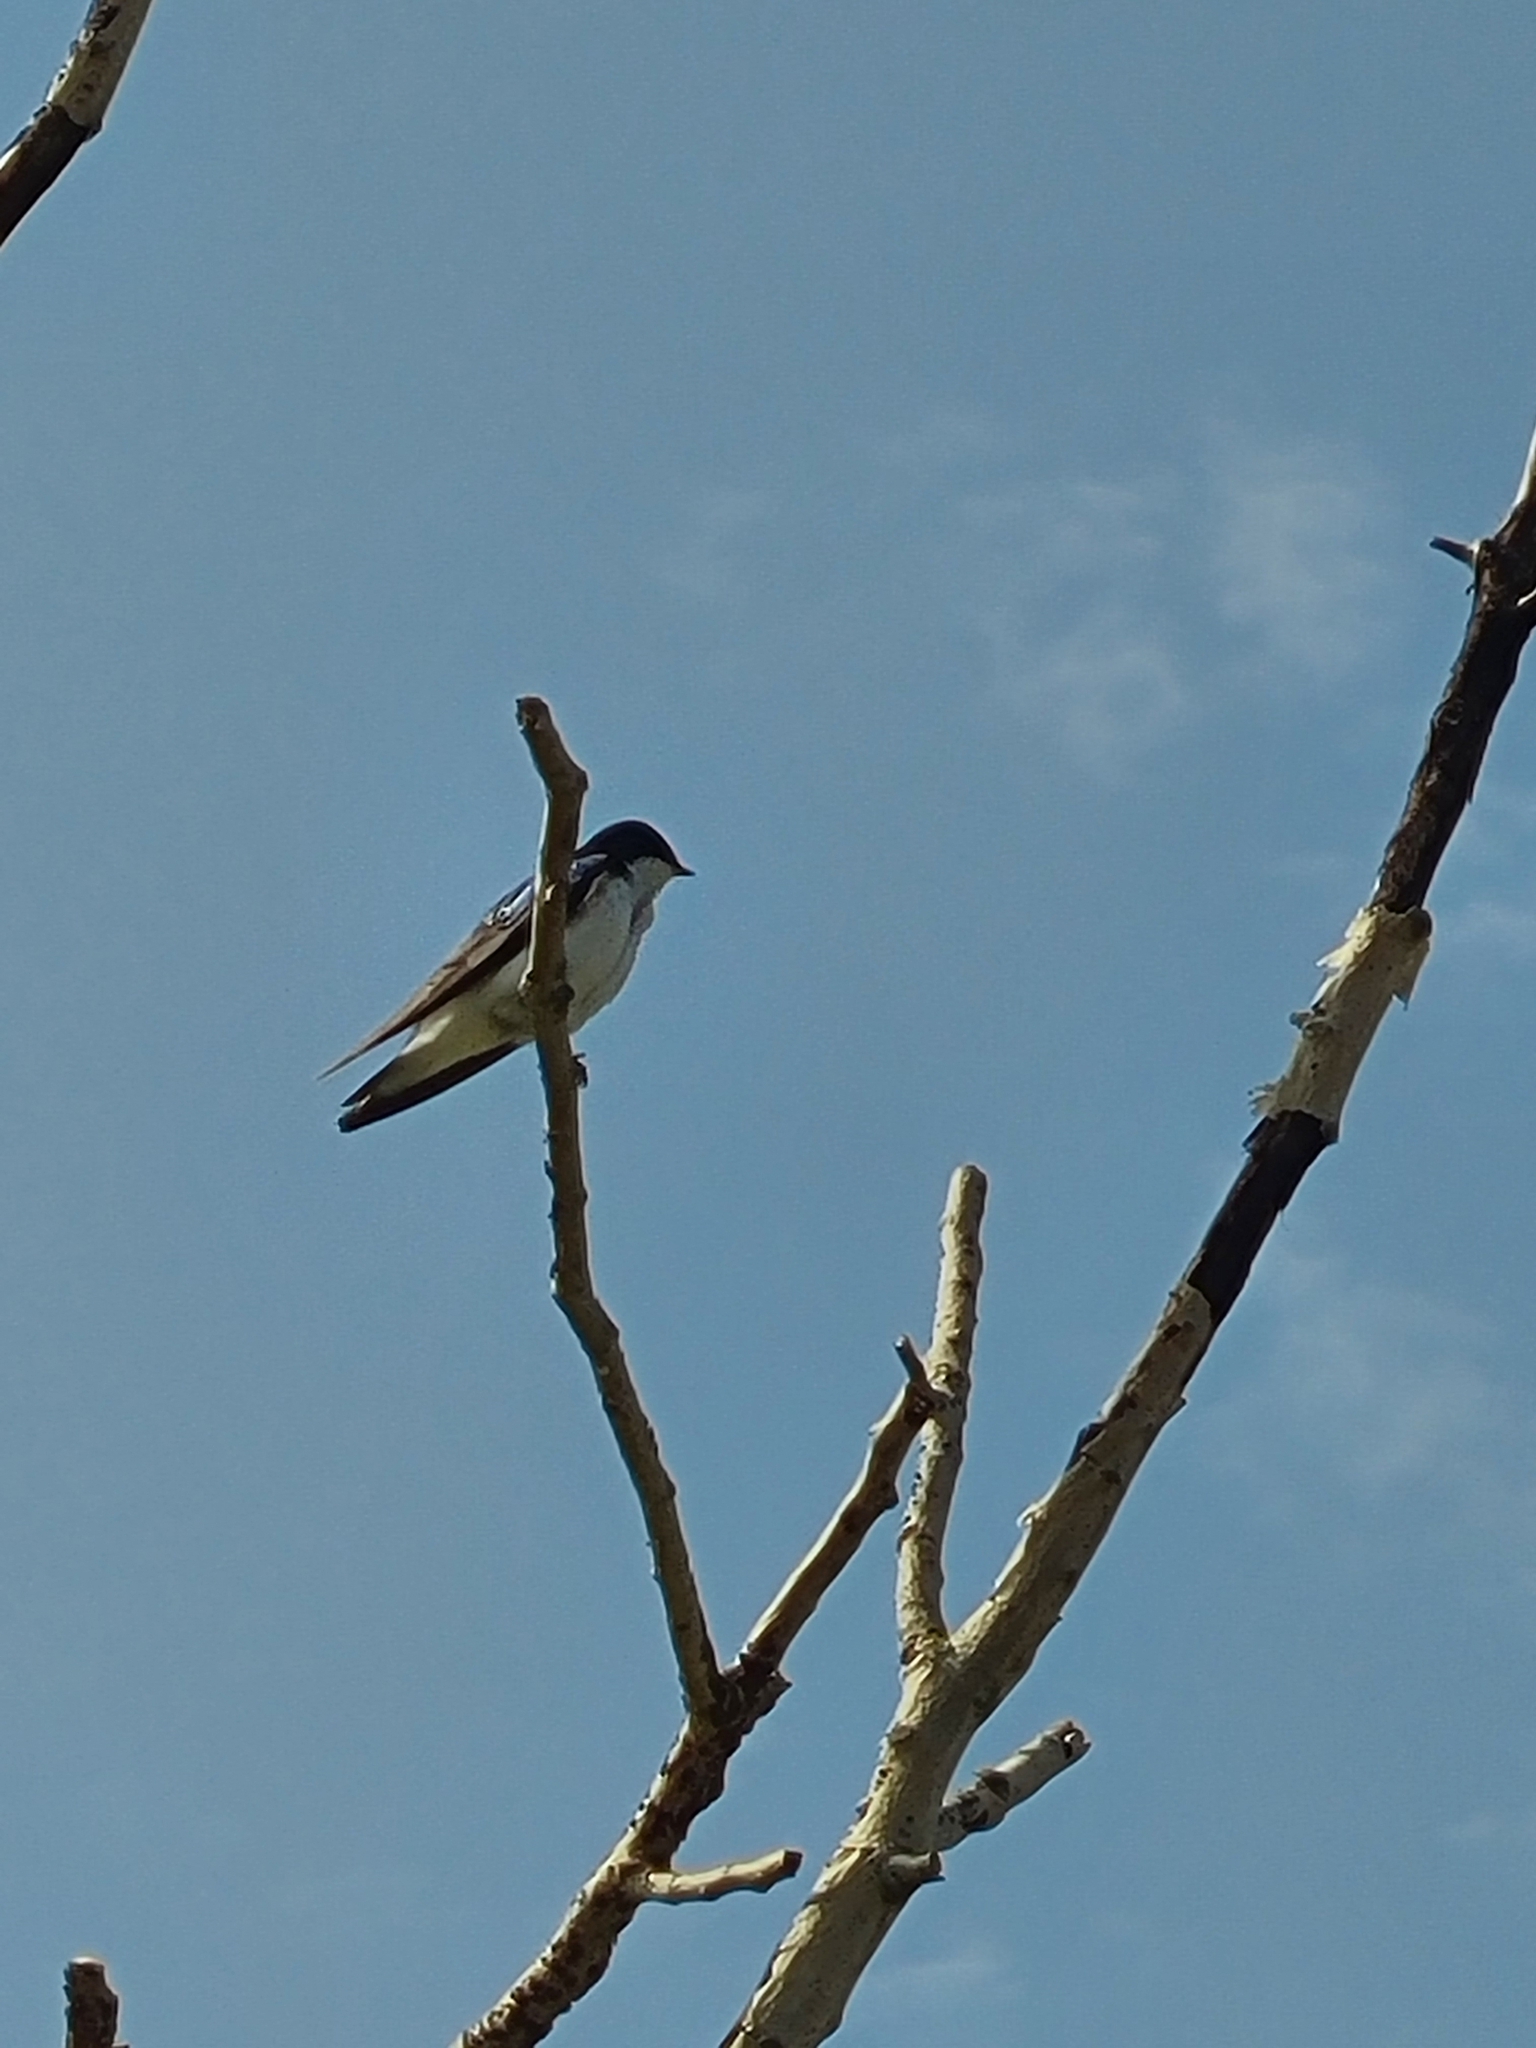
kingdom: Animalia
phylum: Chordata
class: Aves
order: Passeriformes
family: Hirundinidae
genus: Tachycineta
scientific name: Tachycineta bicolor
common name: Tree swallow
